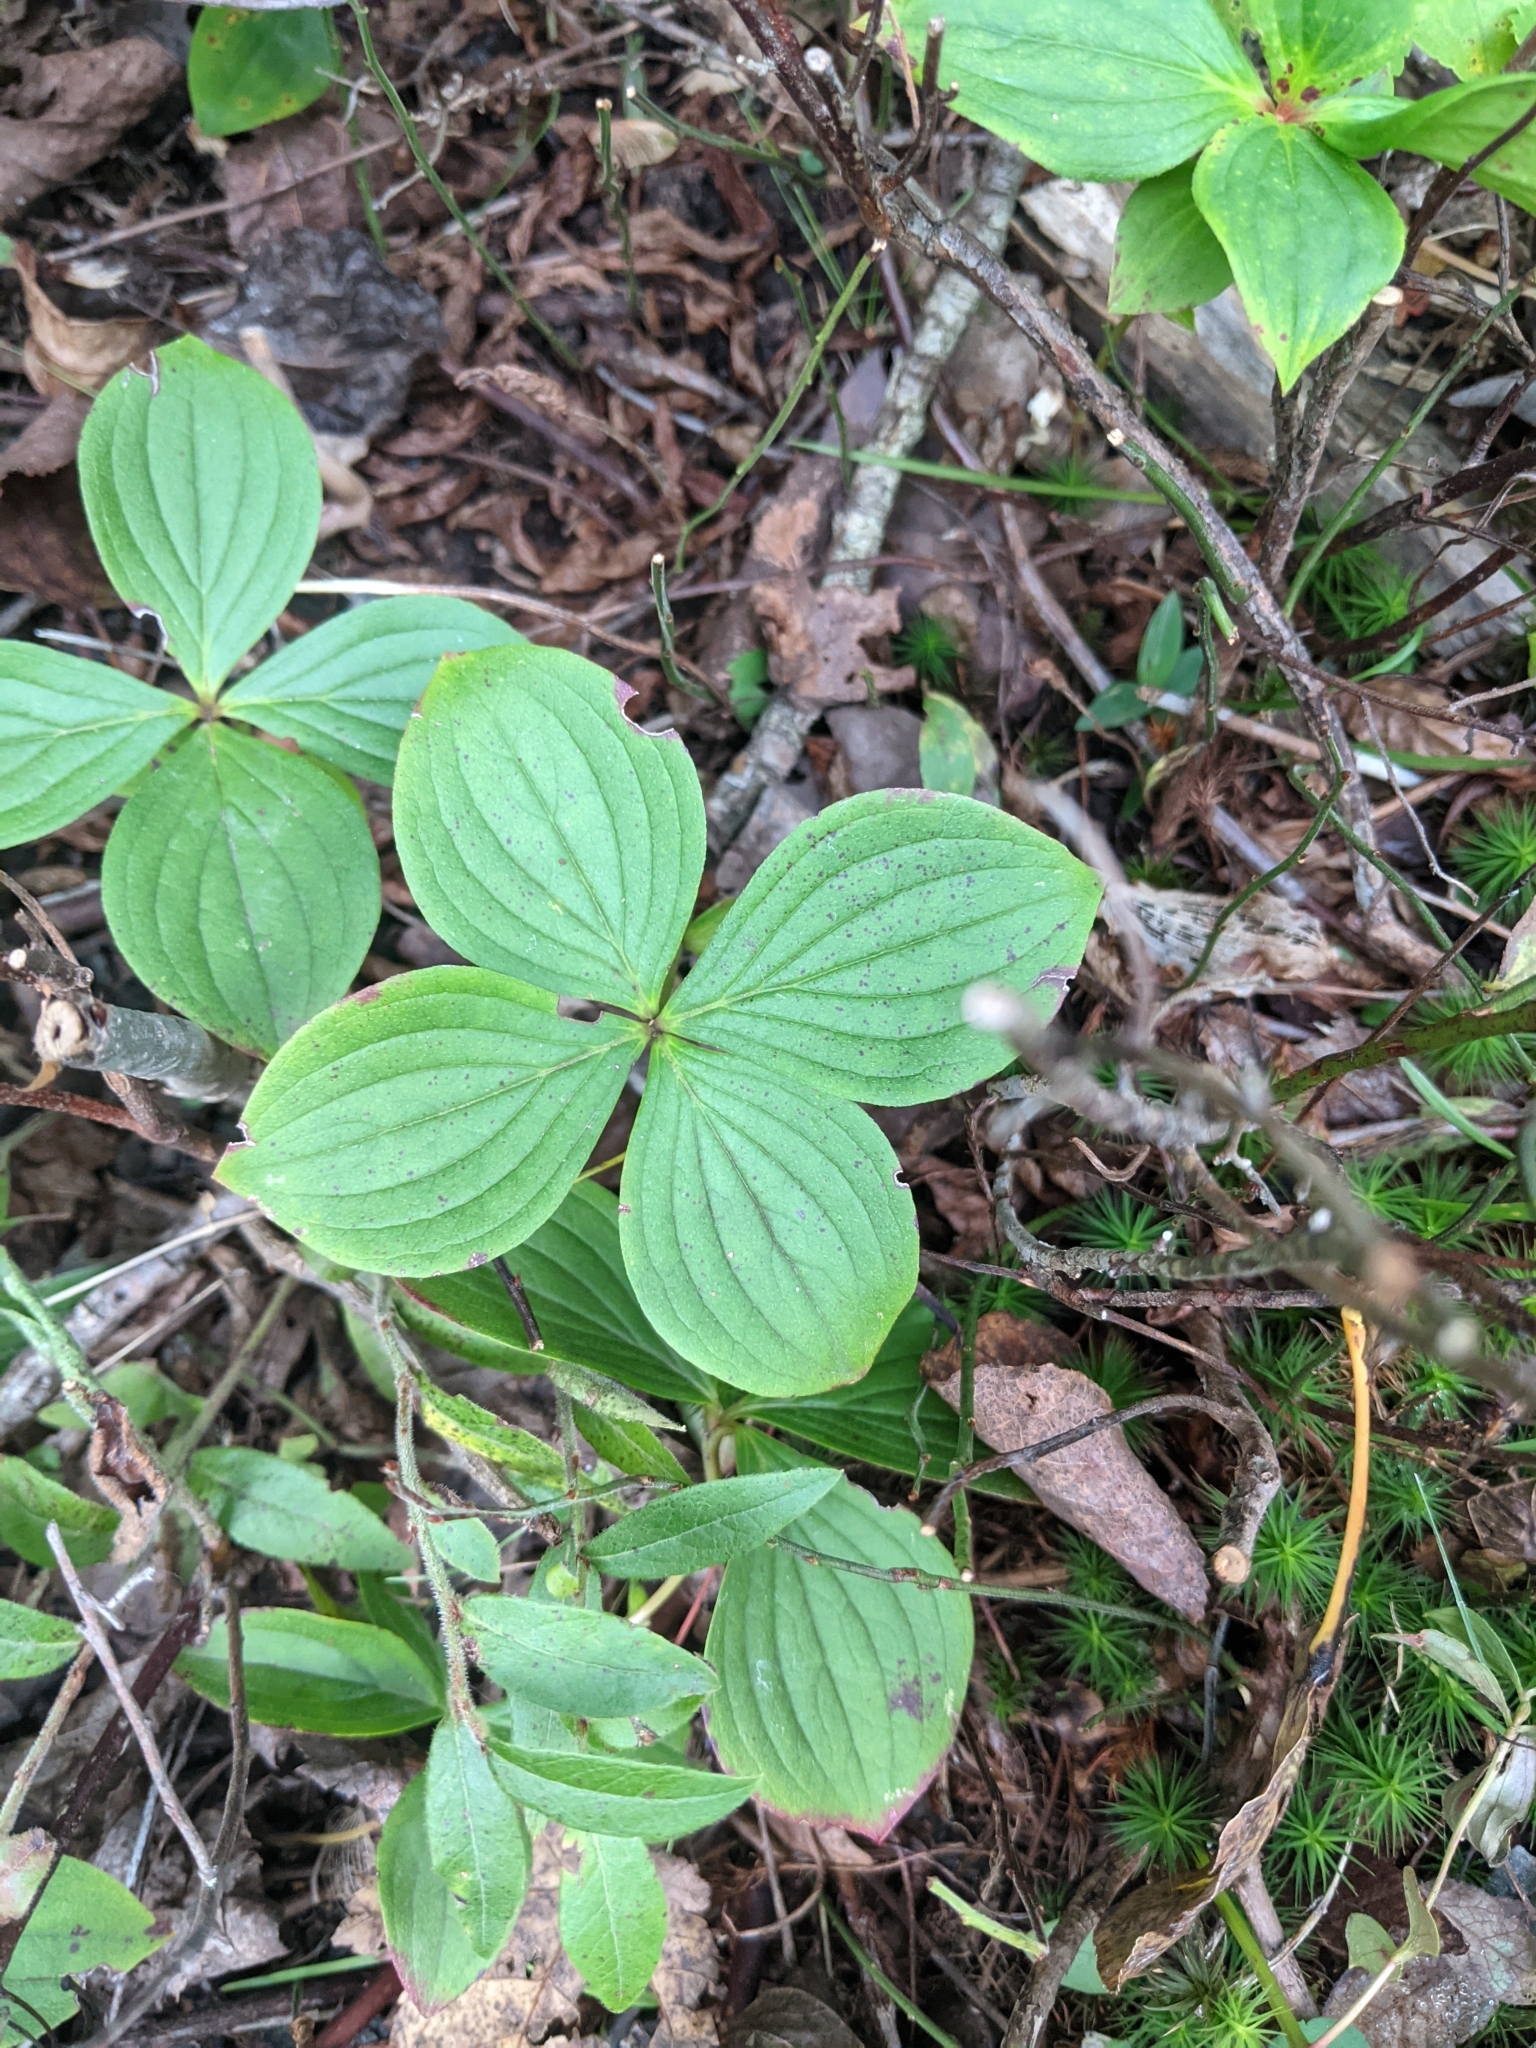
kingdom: Plantae
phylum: Tracheophyta
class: Magnoliopsida
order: Cornales
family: Cornaceae
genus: Cornus
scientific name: Cornus canadensis
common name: Creeping dogwood
